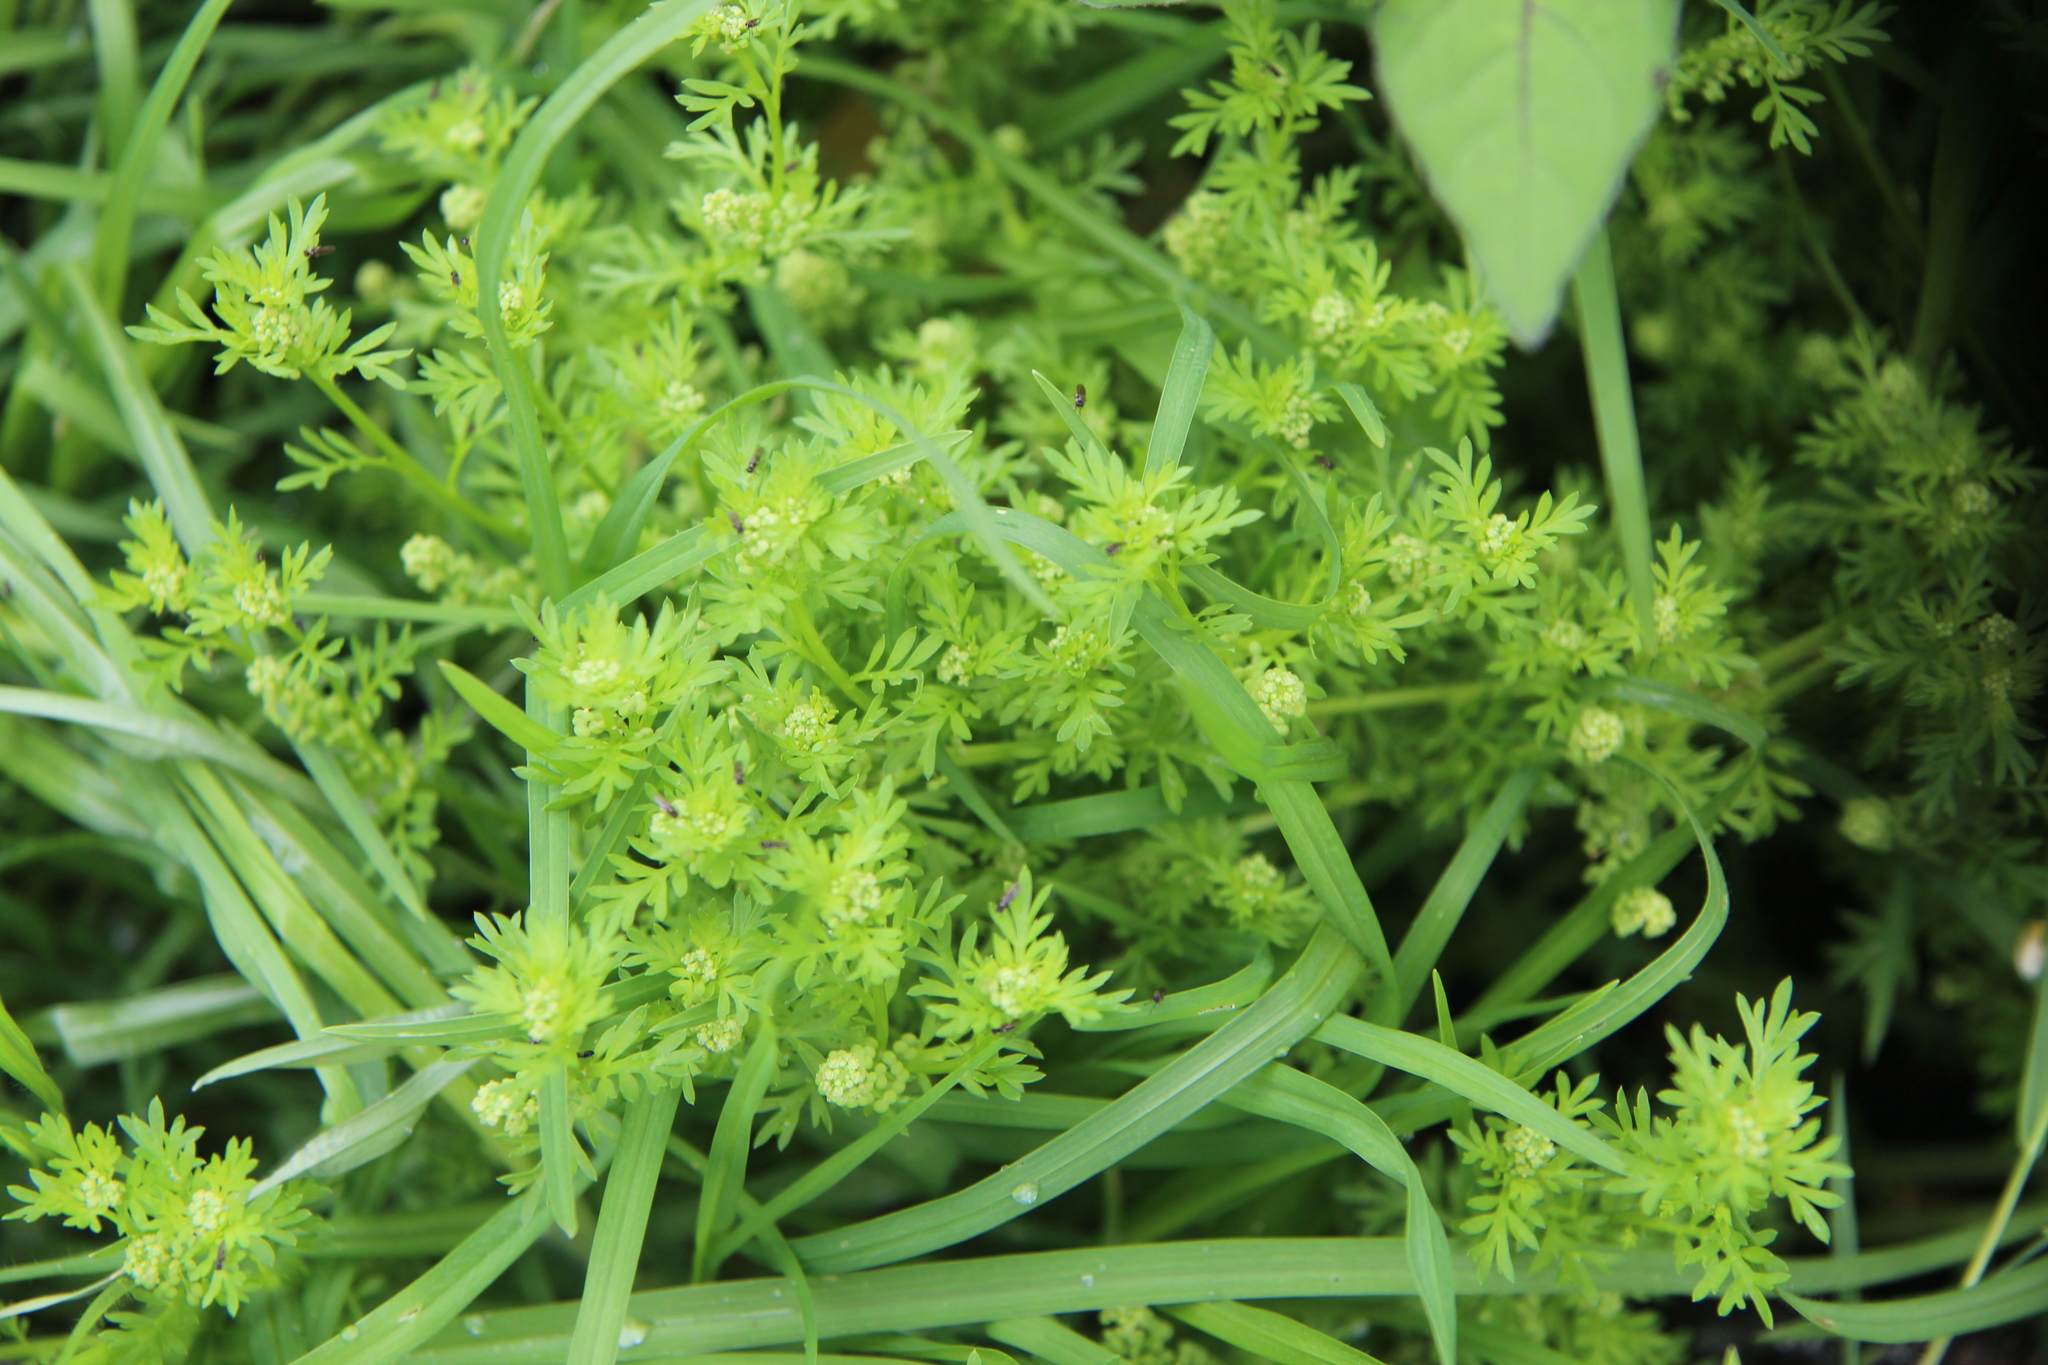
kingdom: Plantae
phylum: Tracheophyta
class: Magnoliopsida
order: Brassicales
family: Brassicaceae
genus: Lepidium
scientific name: Lepidium didymum
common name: Lesser swinecress
